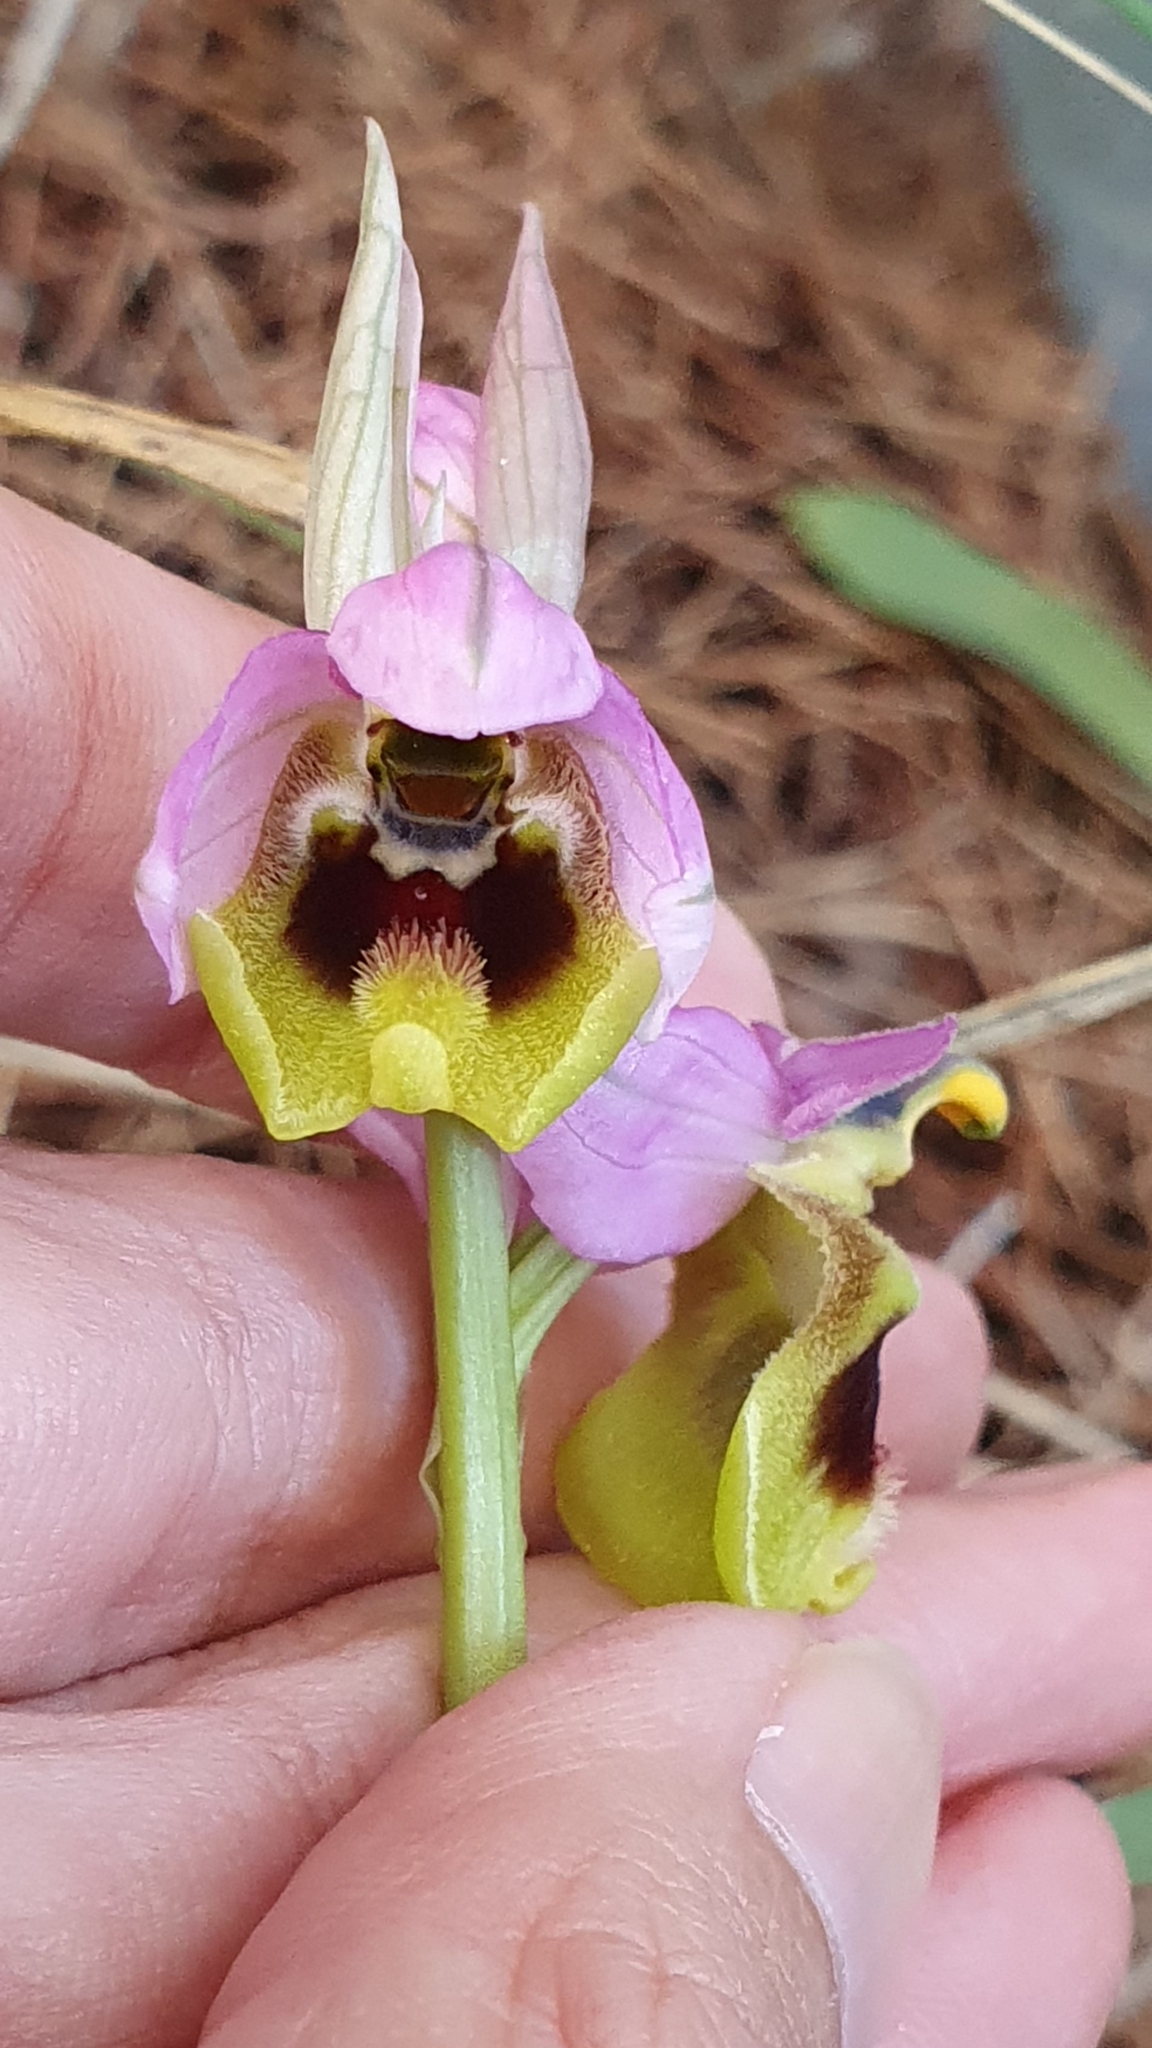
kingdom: Plantae
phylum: Tracheophyta
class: Liliopsida
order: Asparagales
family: Orchidaceae
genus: Ophrys
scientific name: Ophrys tenthredinifera
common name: Sawfly orchid
